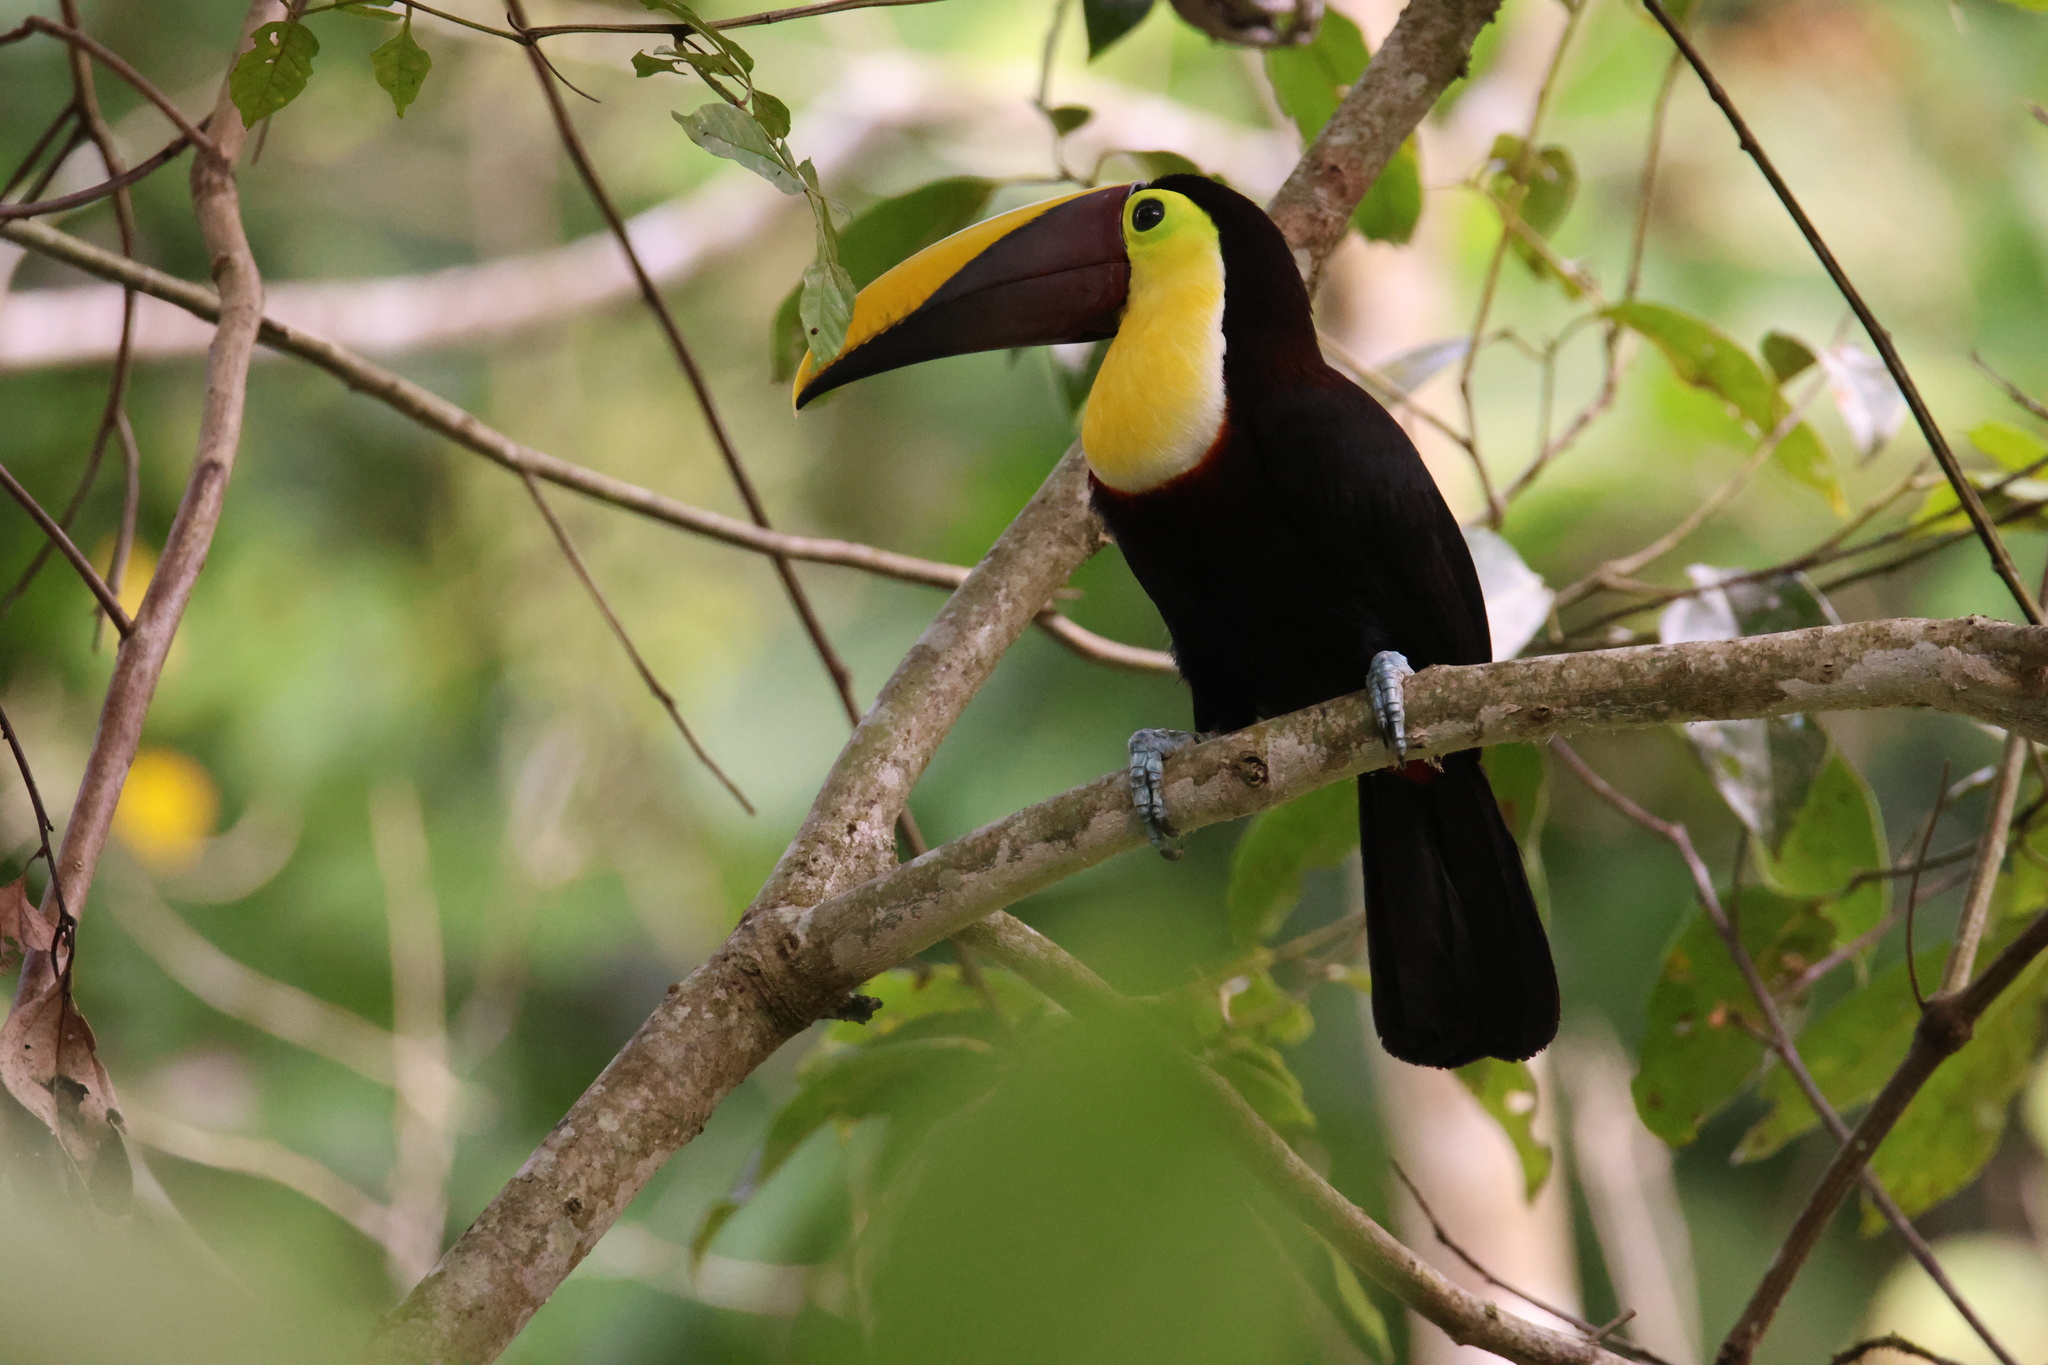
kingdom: Animalia
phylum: Chordata
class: Aves
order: Piciformes
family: Ramphastidae
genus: Ramphastos
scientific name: Ramphastos ambiguus
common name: Yellow-throated toucan
